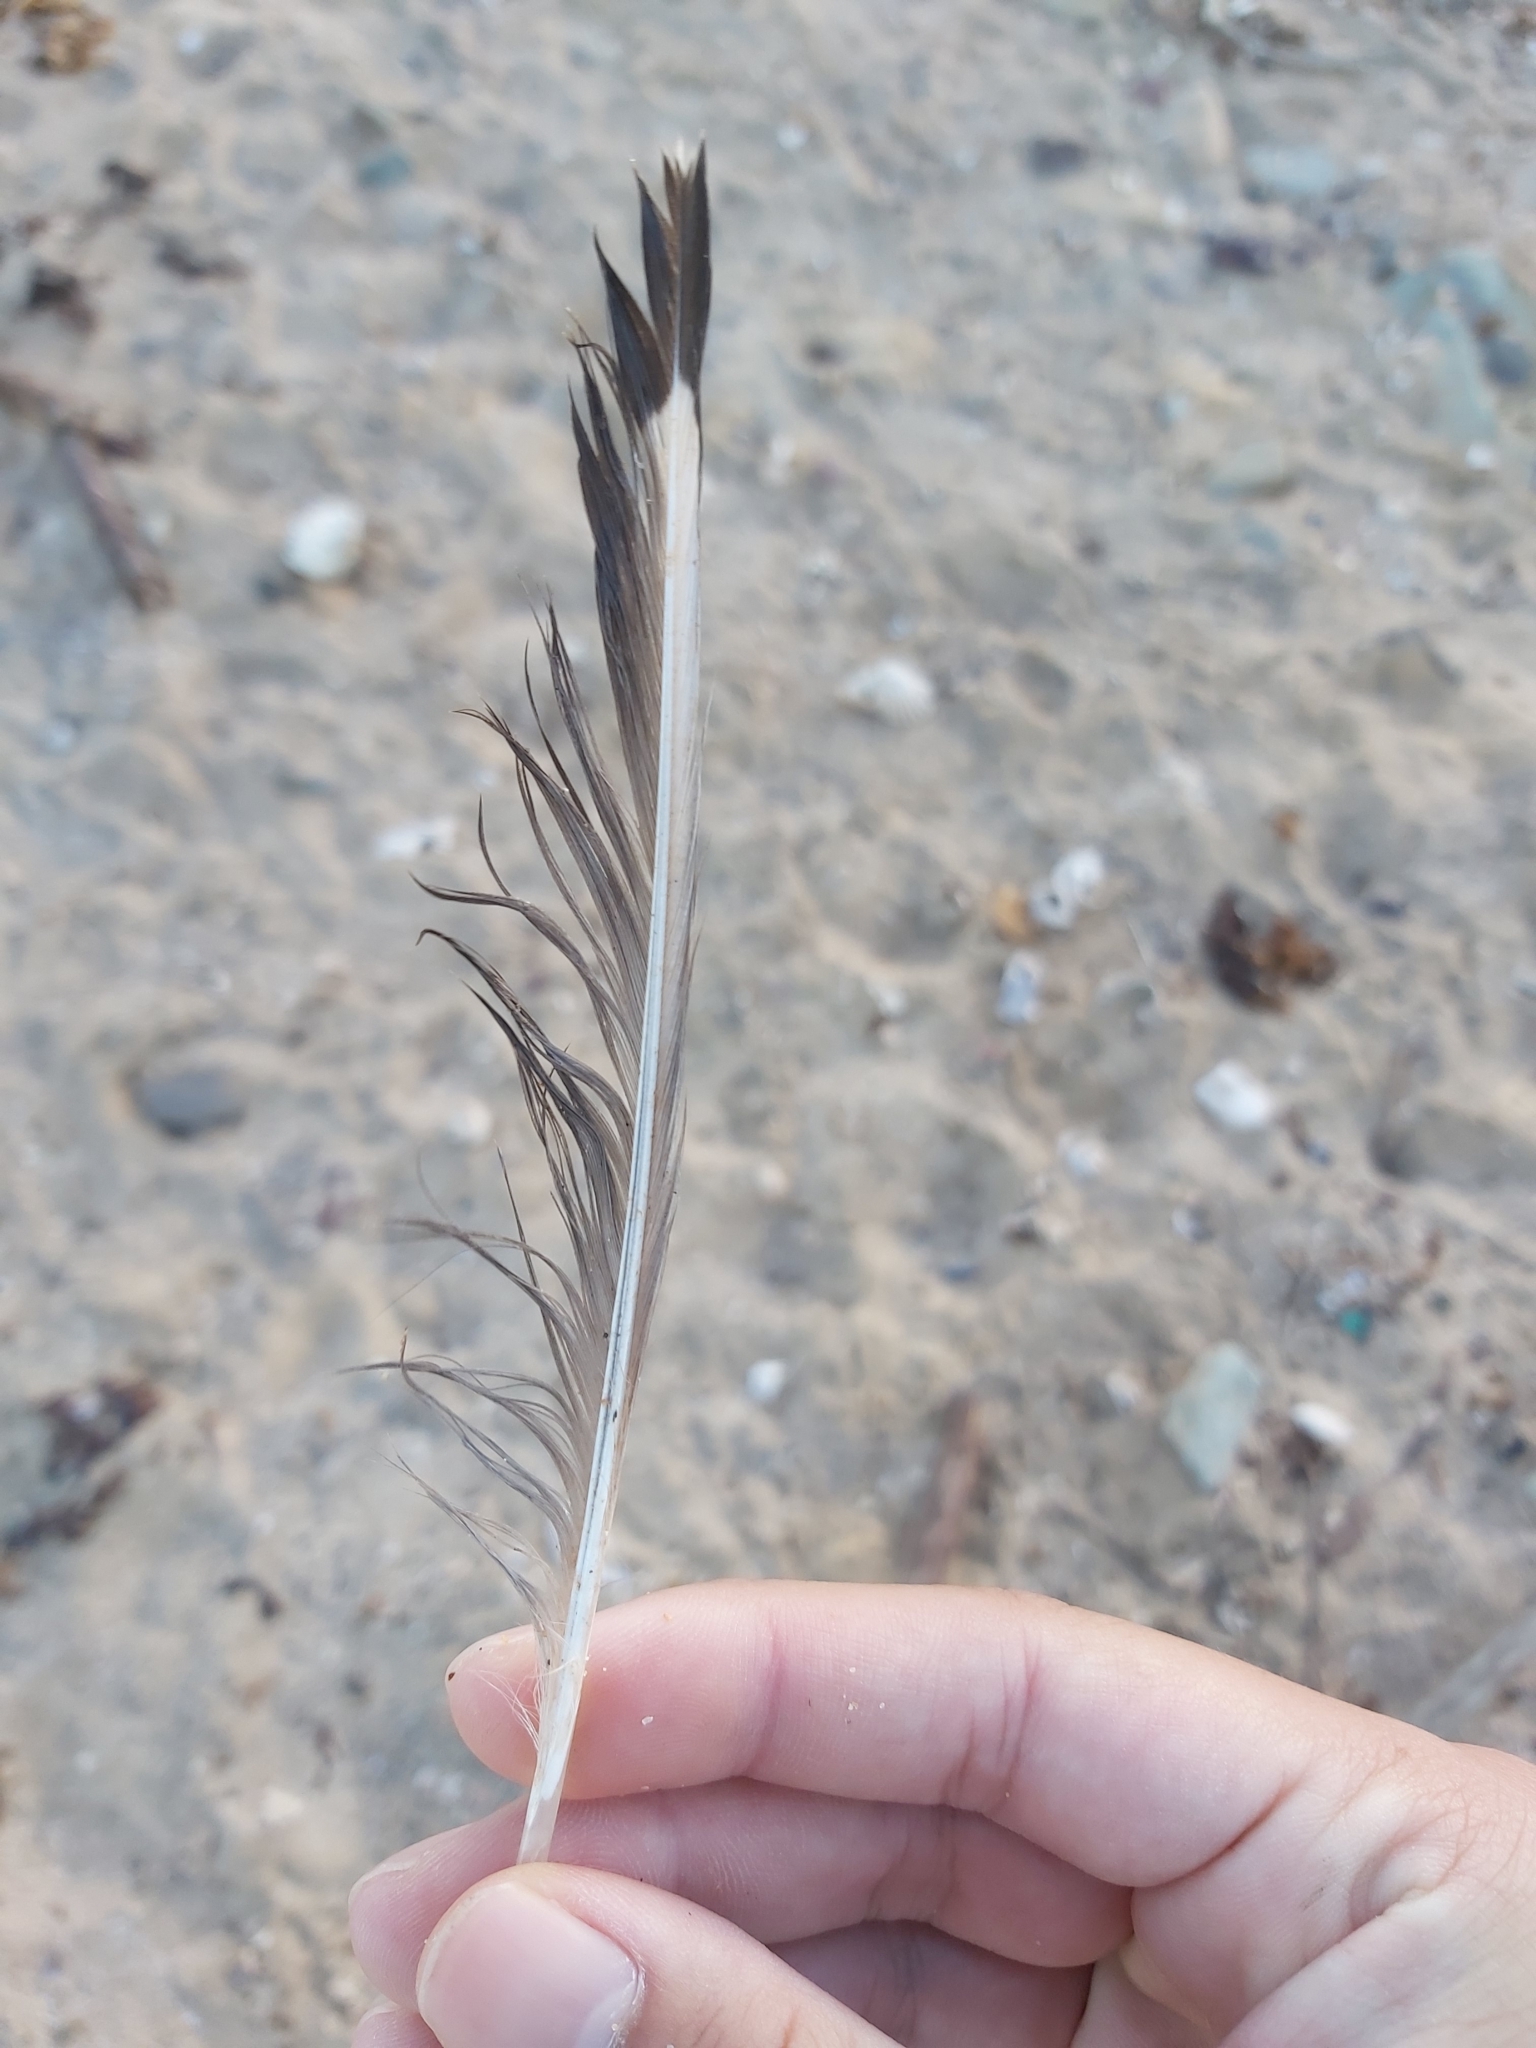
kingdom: Animalia
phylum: Chordata
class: Aves
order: Charadriiformes
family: Laridae
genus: Chroicocephalus
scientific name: Chroicocephalus novaehollandiae
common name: Silver gull
